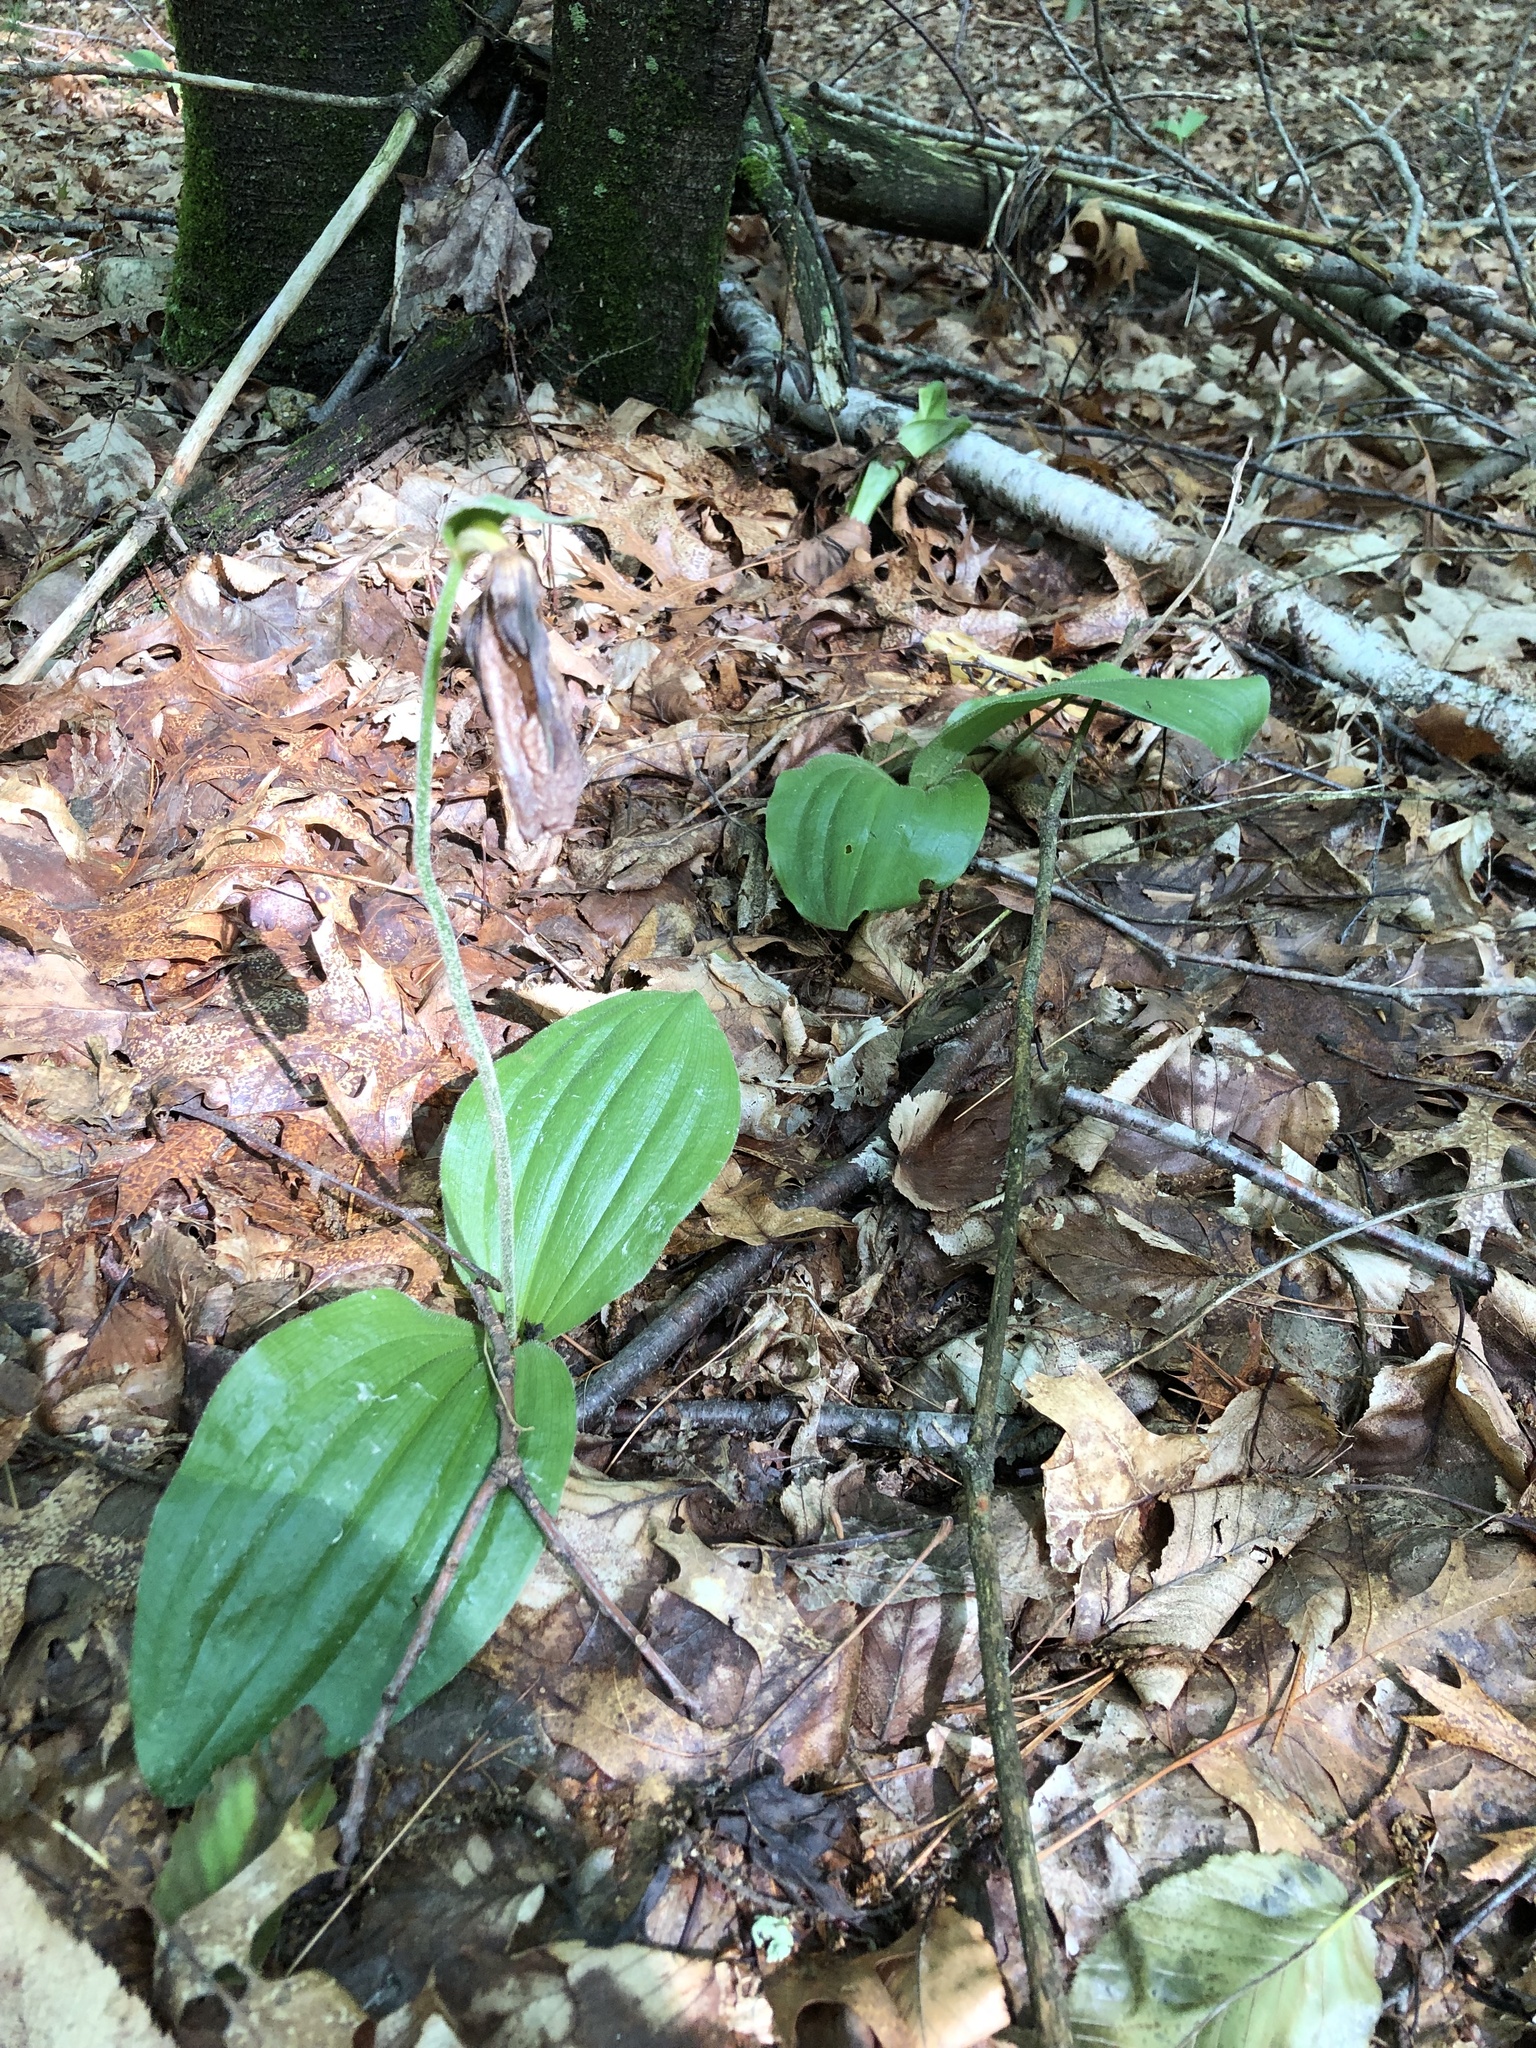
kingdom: Plantae
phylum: Tracheophyta
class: Liliopsida
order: Asparagales
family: Orchidaceae
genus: Cypripedium
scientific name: Cypripedium acaule
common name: Pink lady's-slipper
